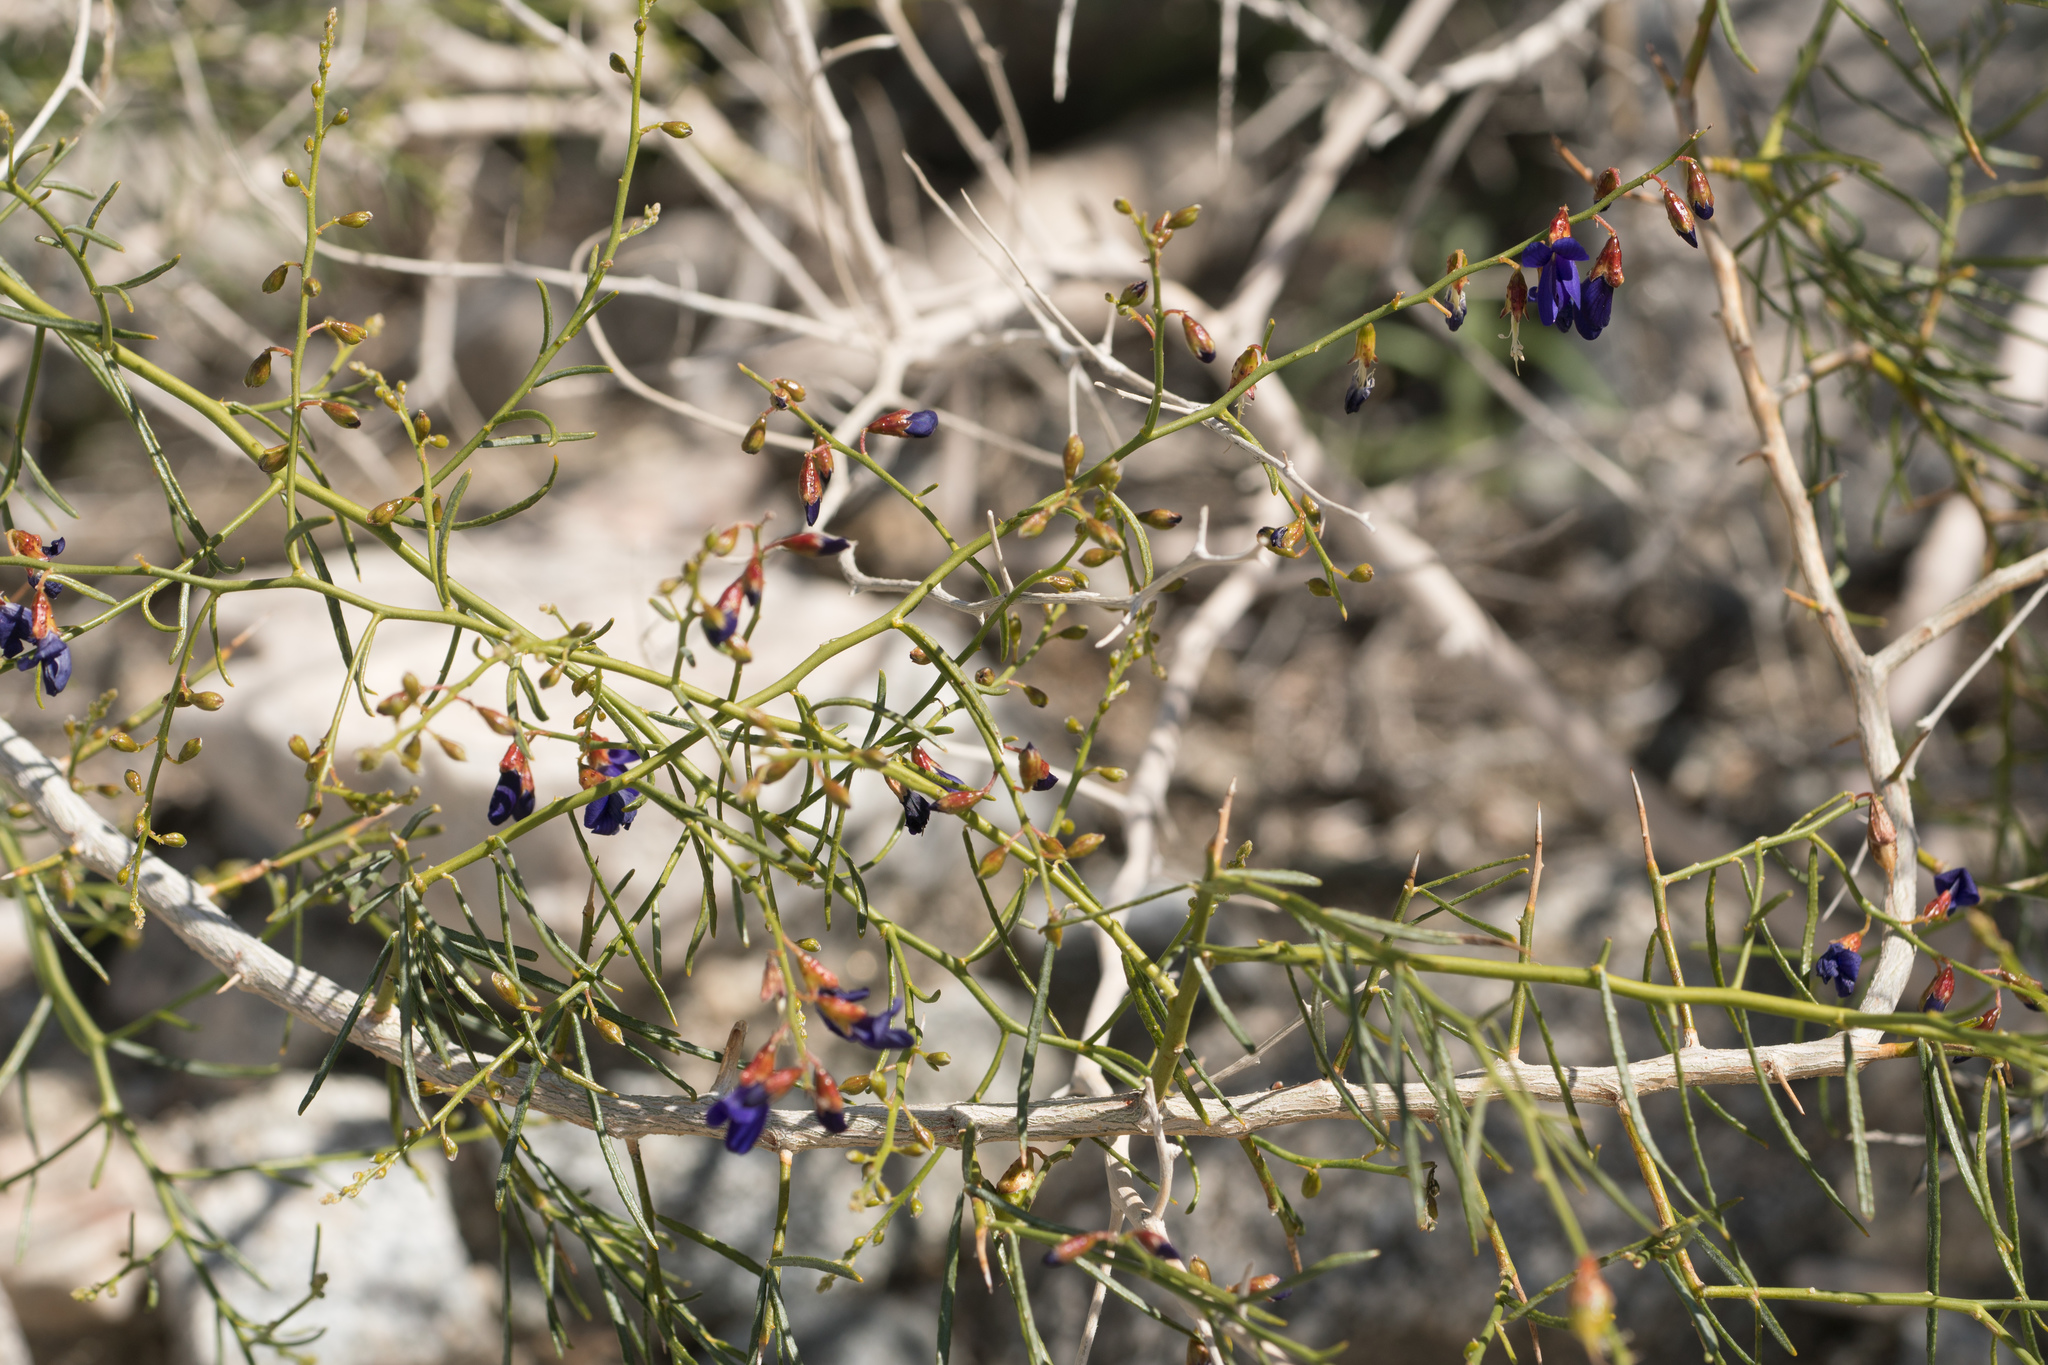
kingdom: Plantae
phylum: Tracheophyta
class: Magnoliopsida
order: Fabales
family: Fabaceae
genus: Psorothamnus
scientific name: Psorothamnus schottii
